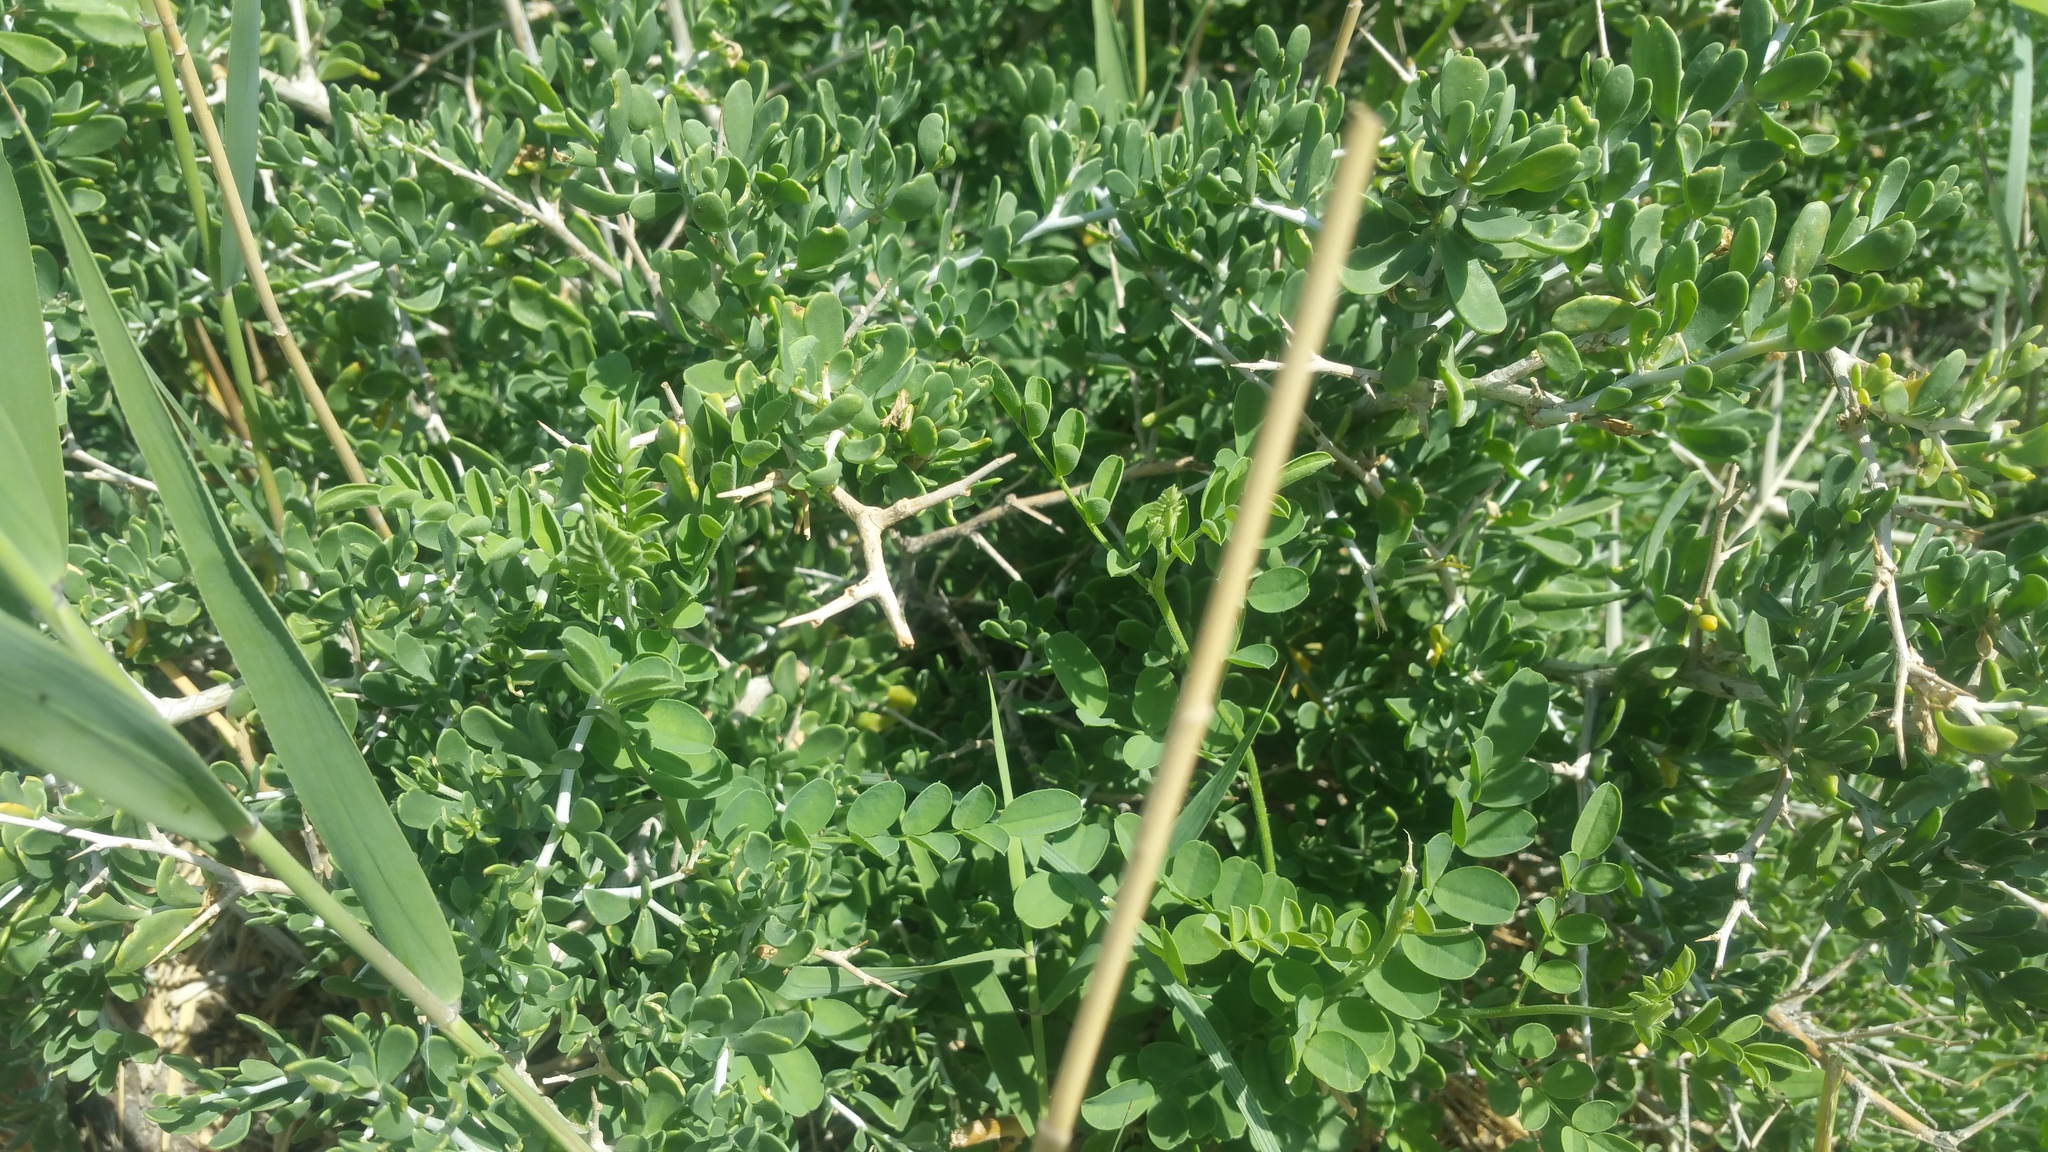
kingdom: Plantae
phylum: Tracheophyta
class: Magnoliopsida
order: Fabales
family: Fabaceae
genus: Sphaerophysa
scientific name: Sphaerophysa salsula
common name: Alkali swainsonpea
